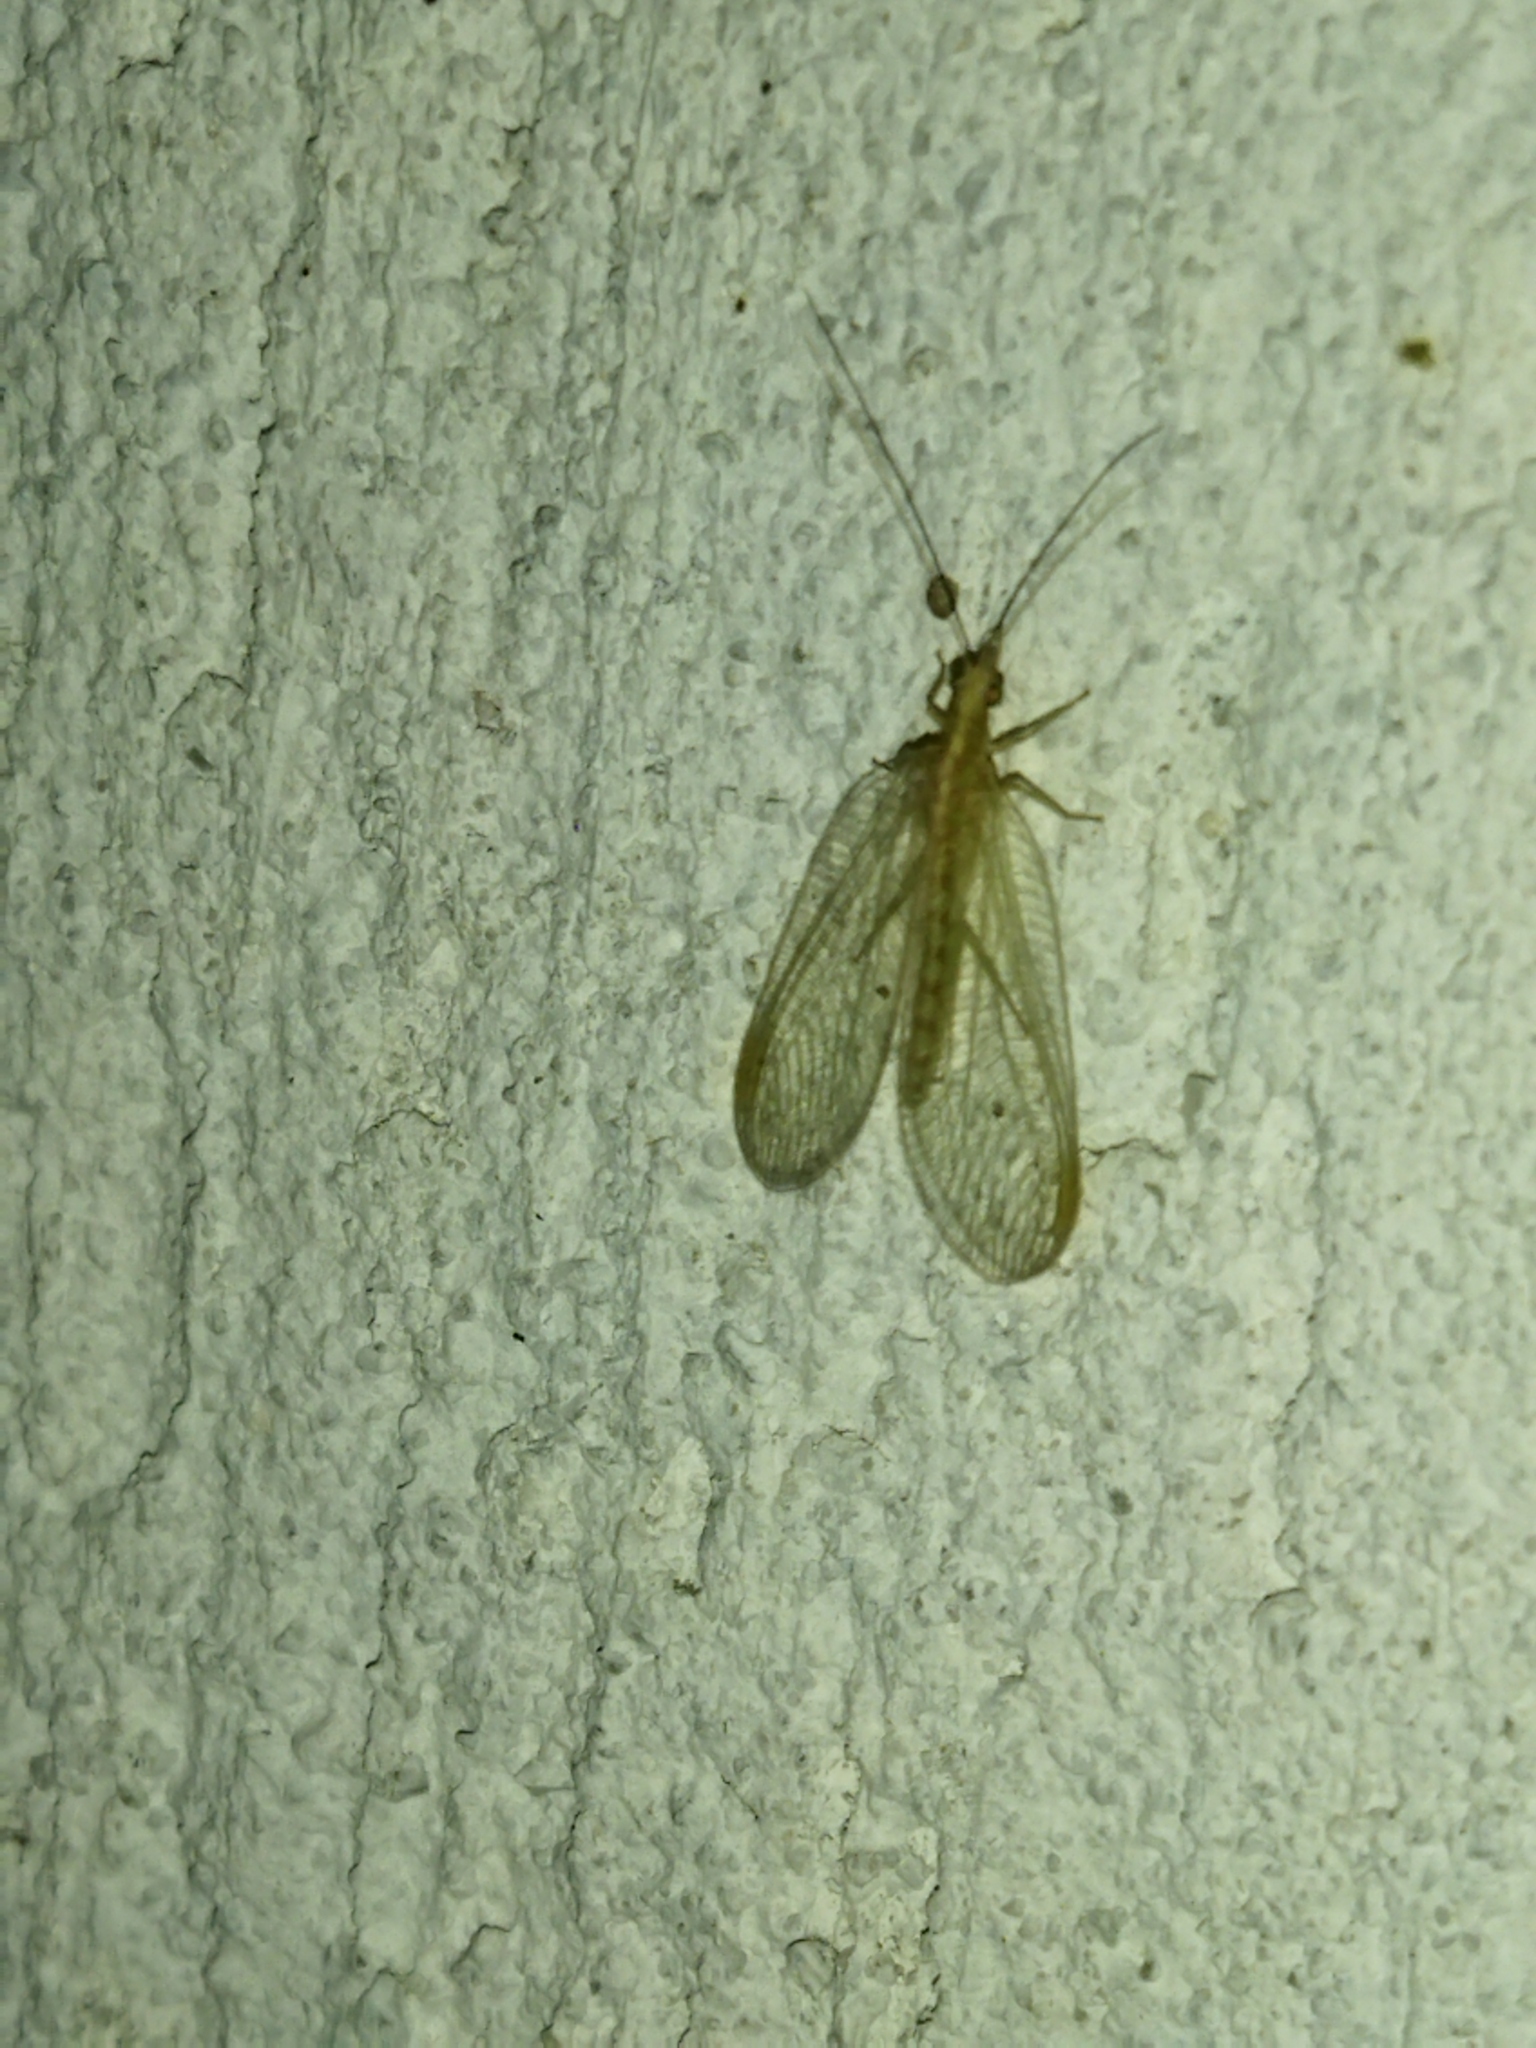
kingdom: Animalia
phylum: Arthropoda
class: Insecta
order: Neuroptera
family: Chrysopidae
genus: Chrysoperla
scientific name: Chrysoperla
